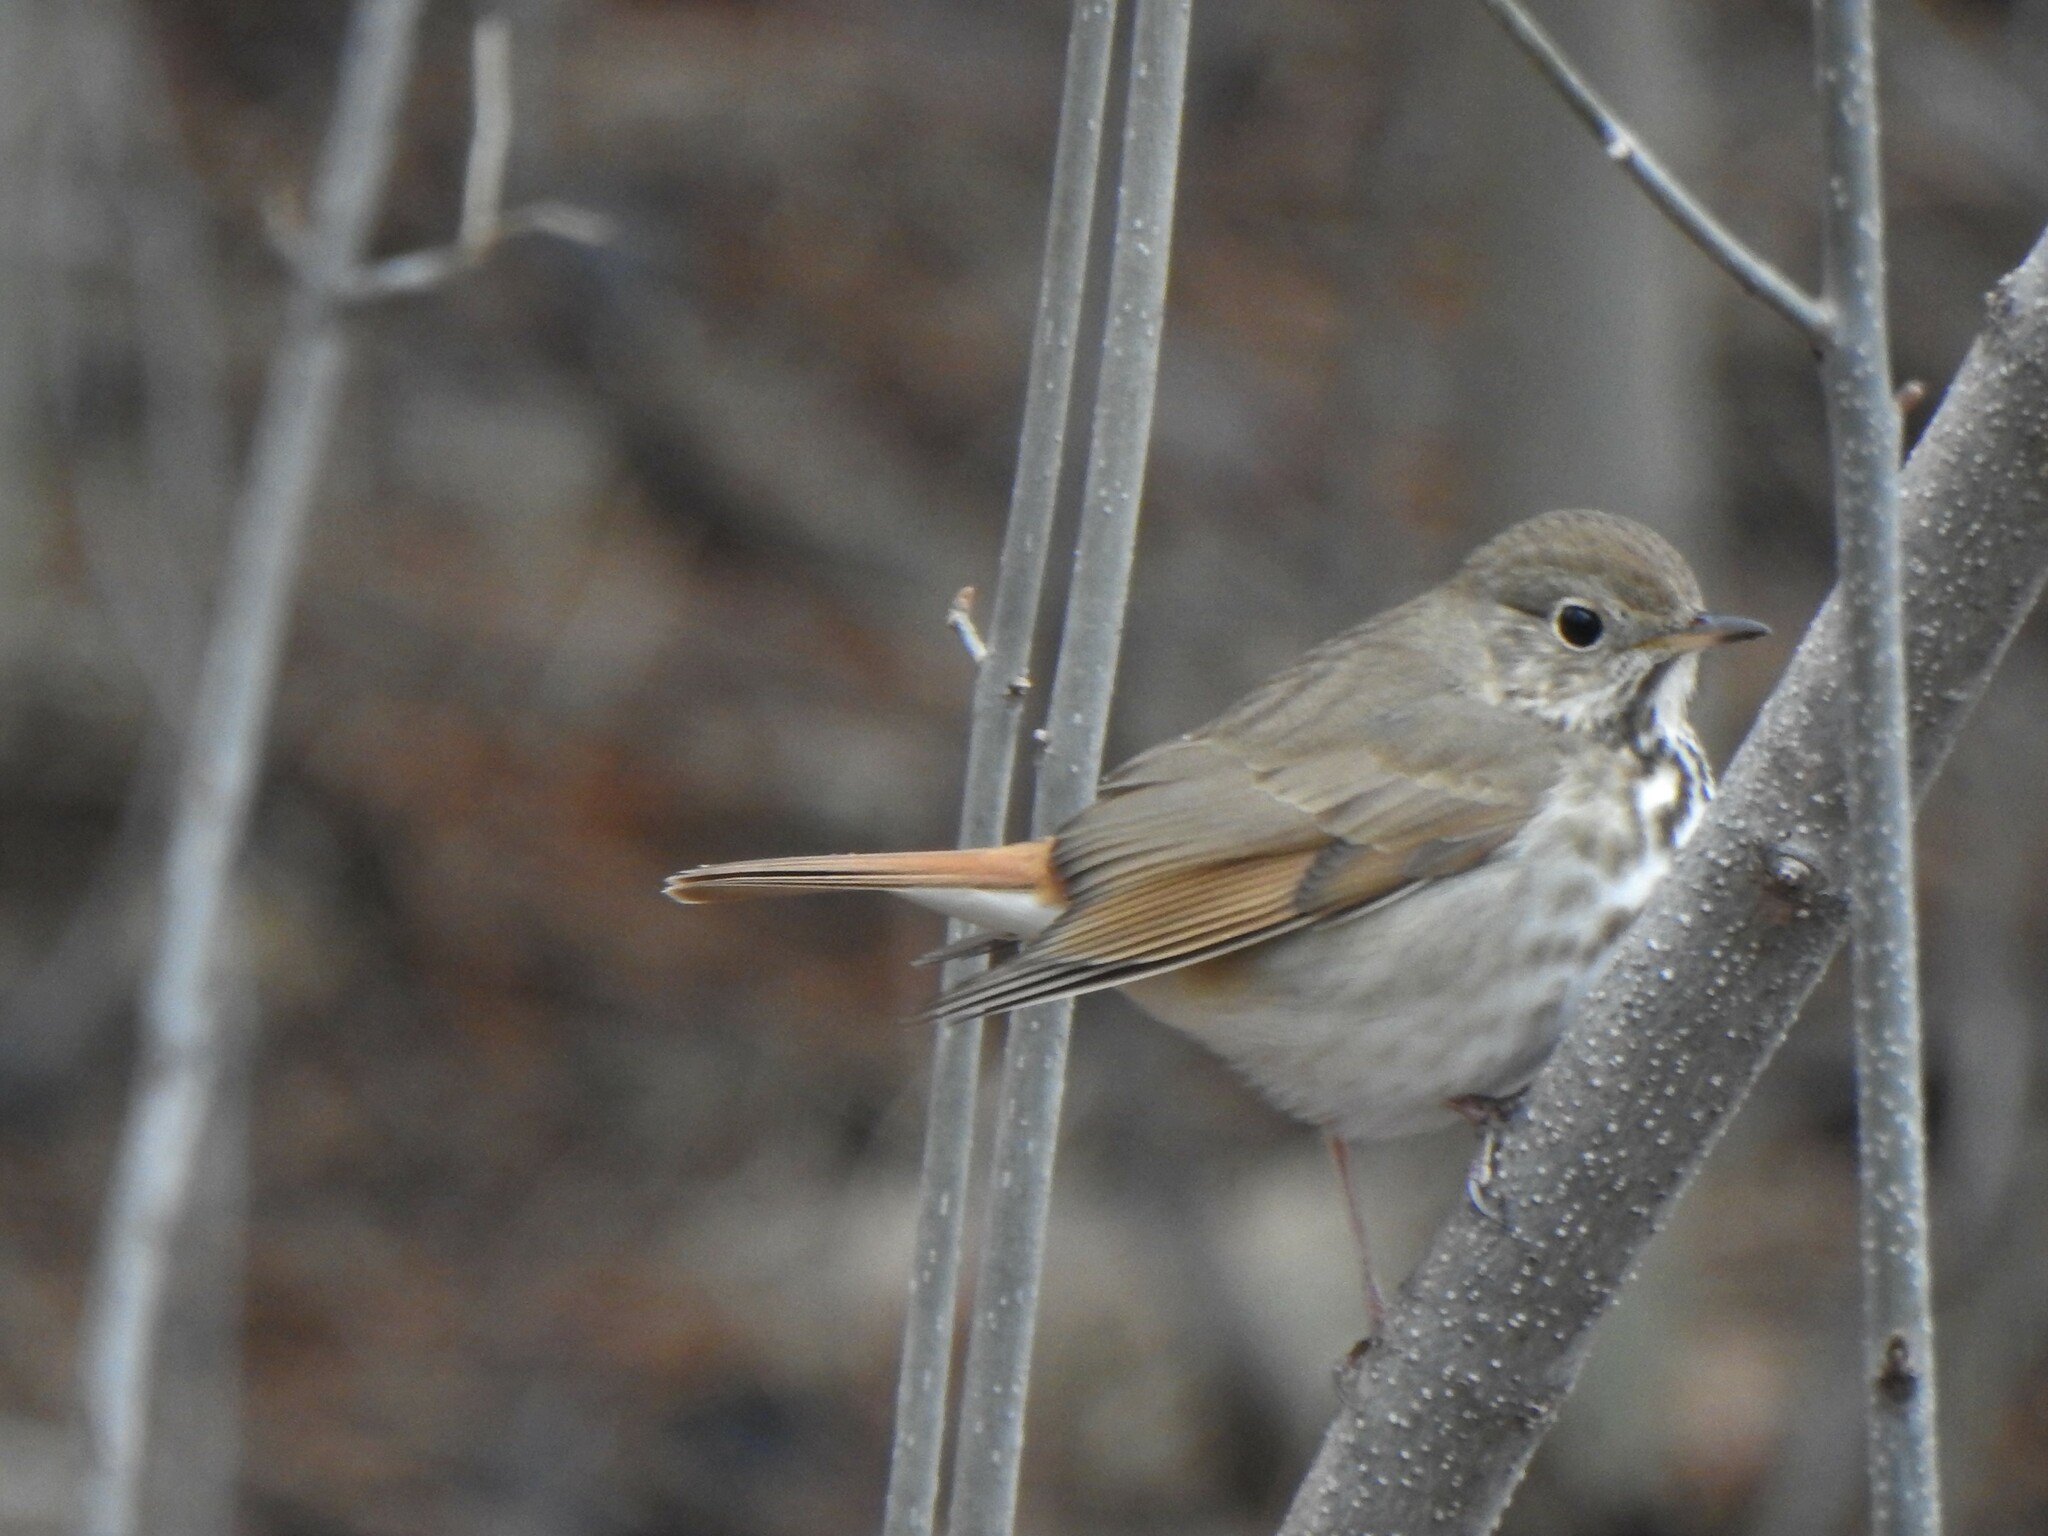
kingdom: Animalia
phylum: Chordata
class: Aves
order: Passeriformes
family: Turdidae
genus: Catharus
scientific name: Catharus guttatus
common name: Hermit thrush
